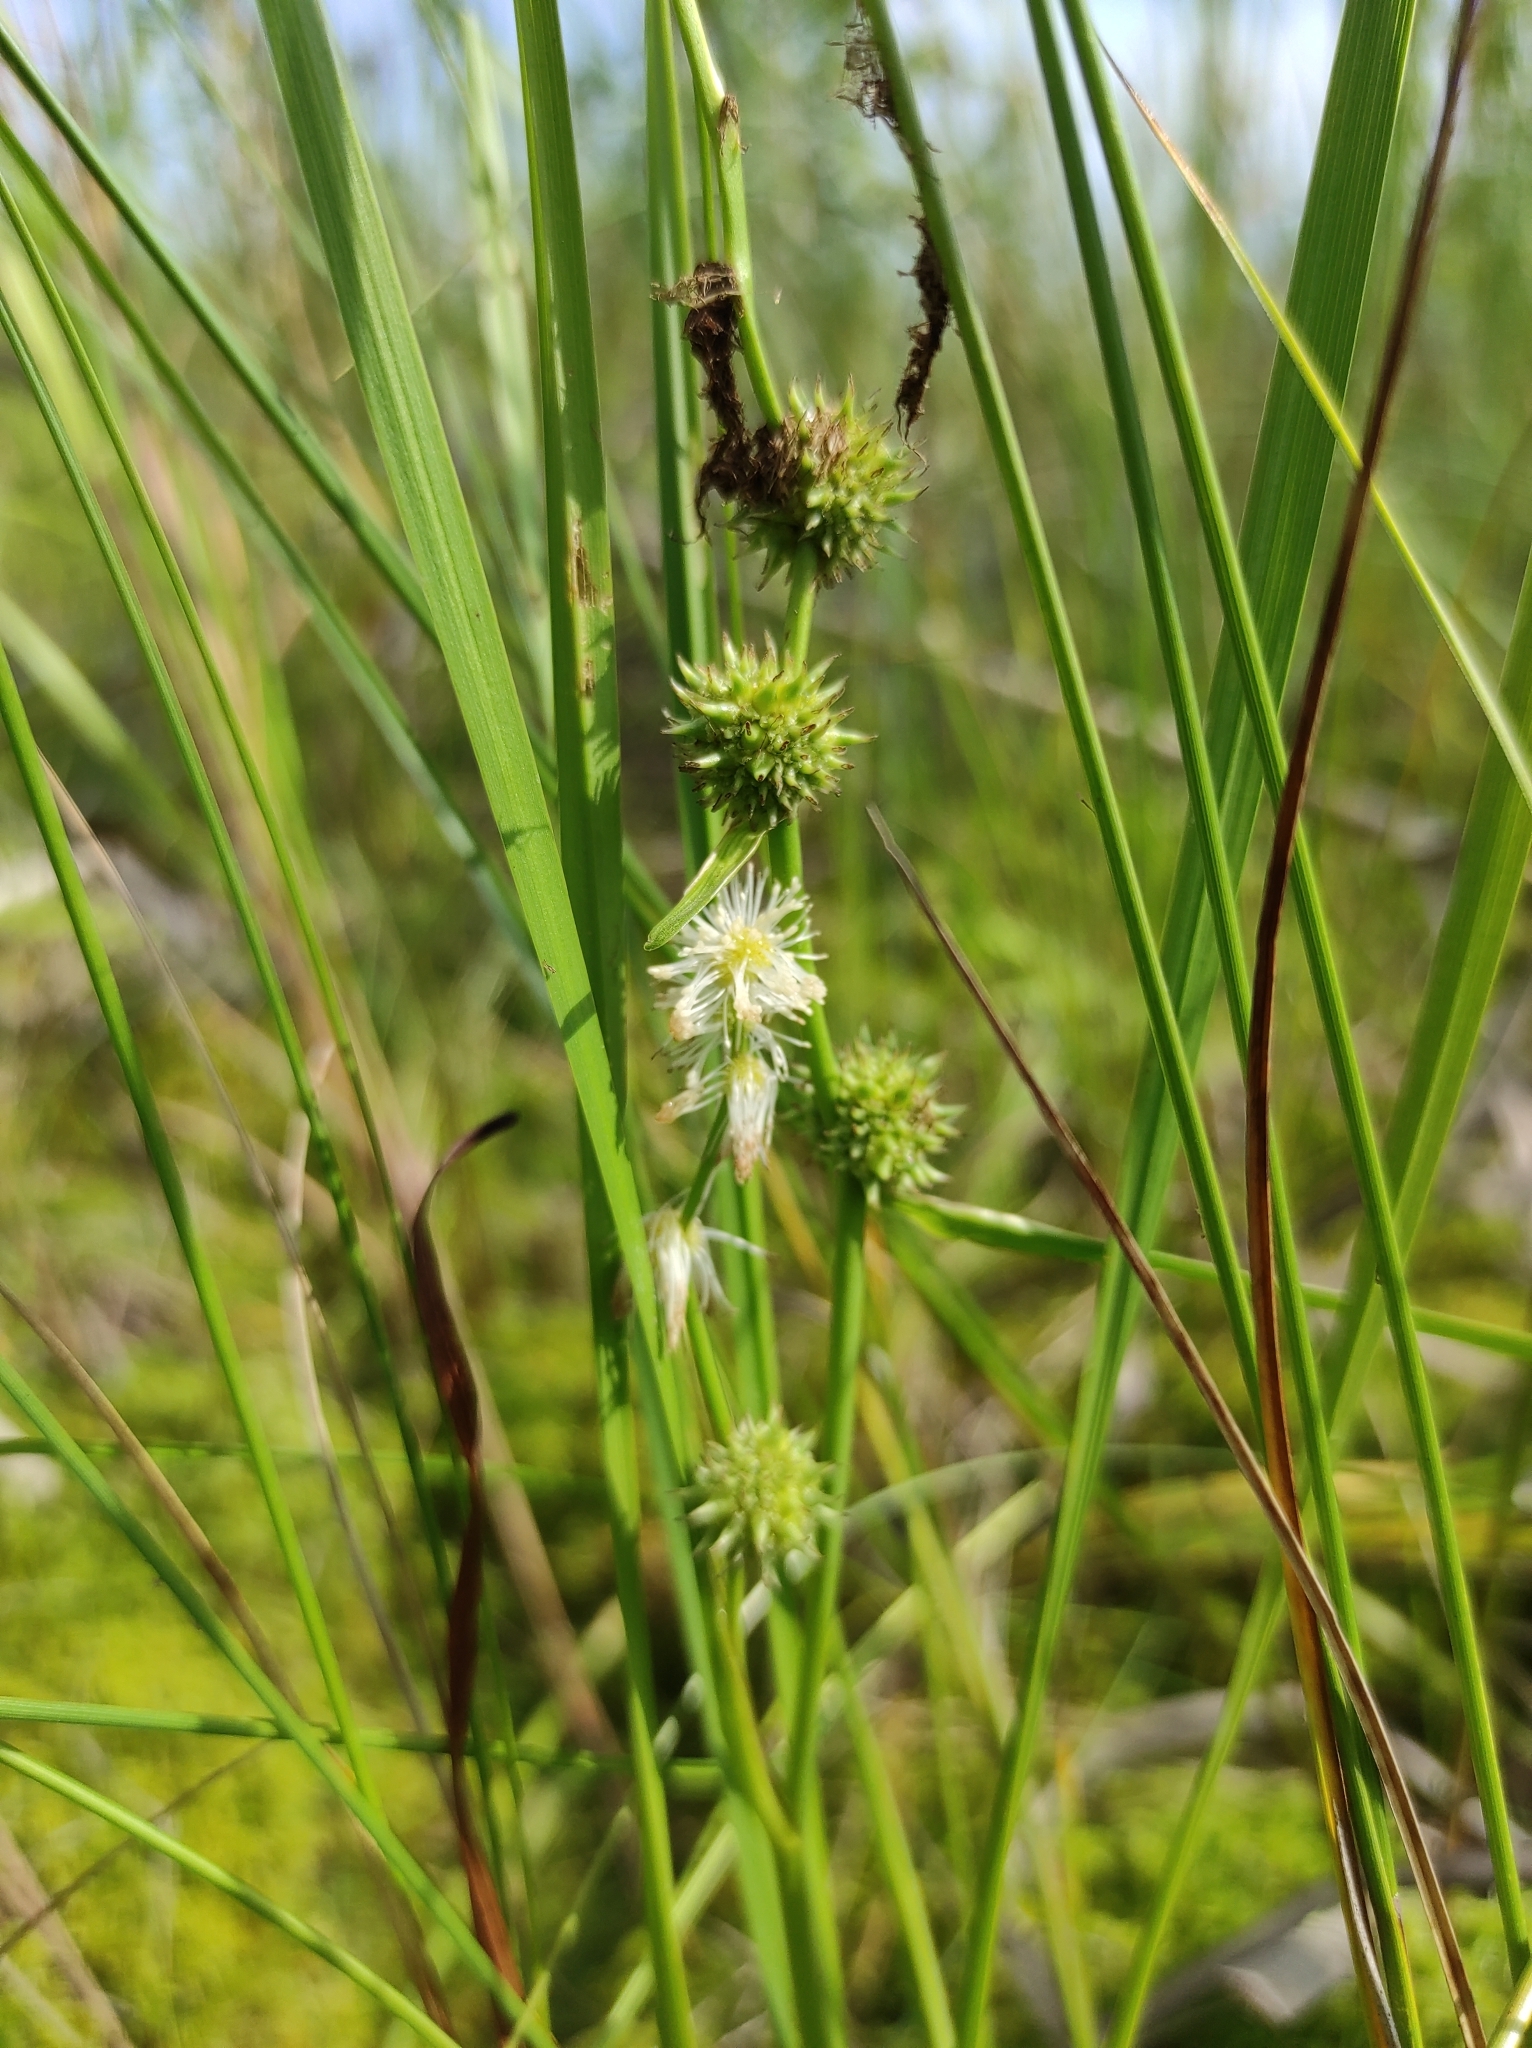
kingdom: Plantae
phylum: Tracheophyta
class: Liliopsida
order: Poales
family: Typhaceae
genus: Sparganium
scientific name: Sparganium subglobosum
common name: Burr­-reed
